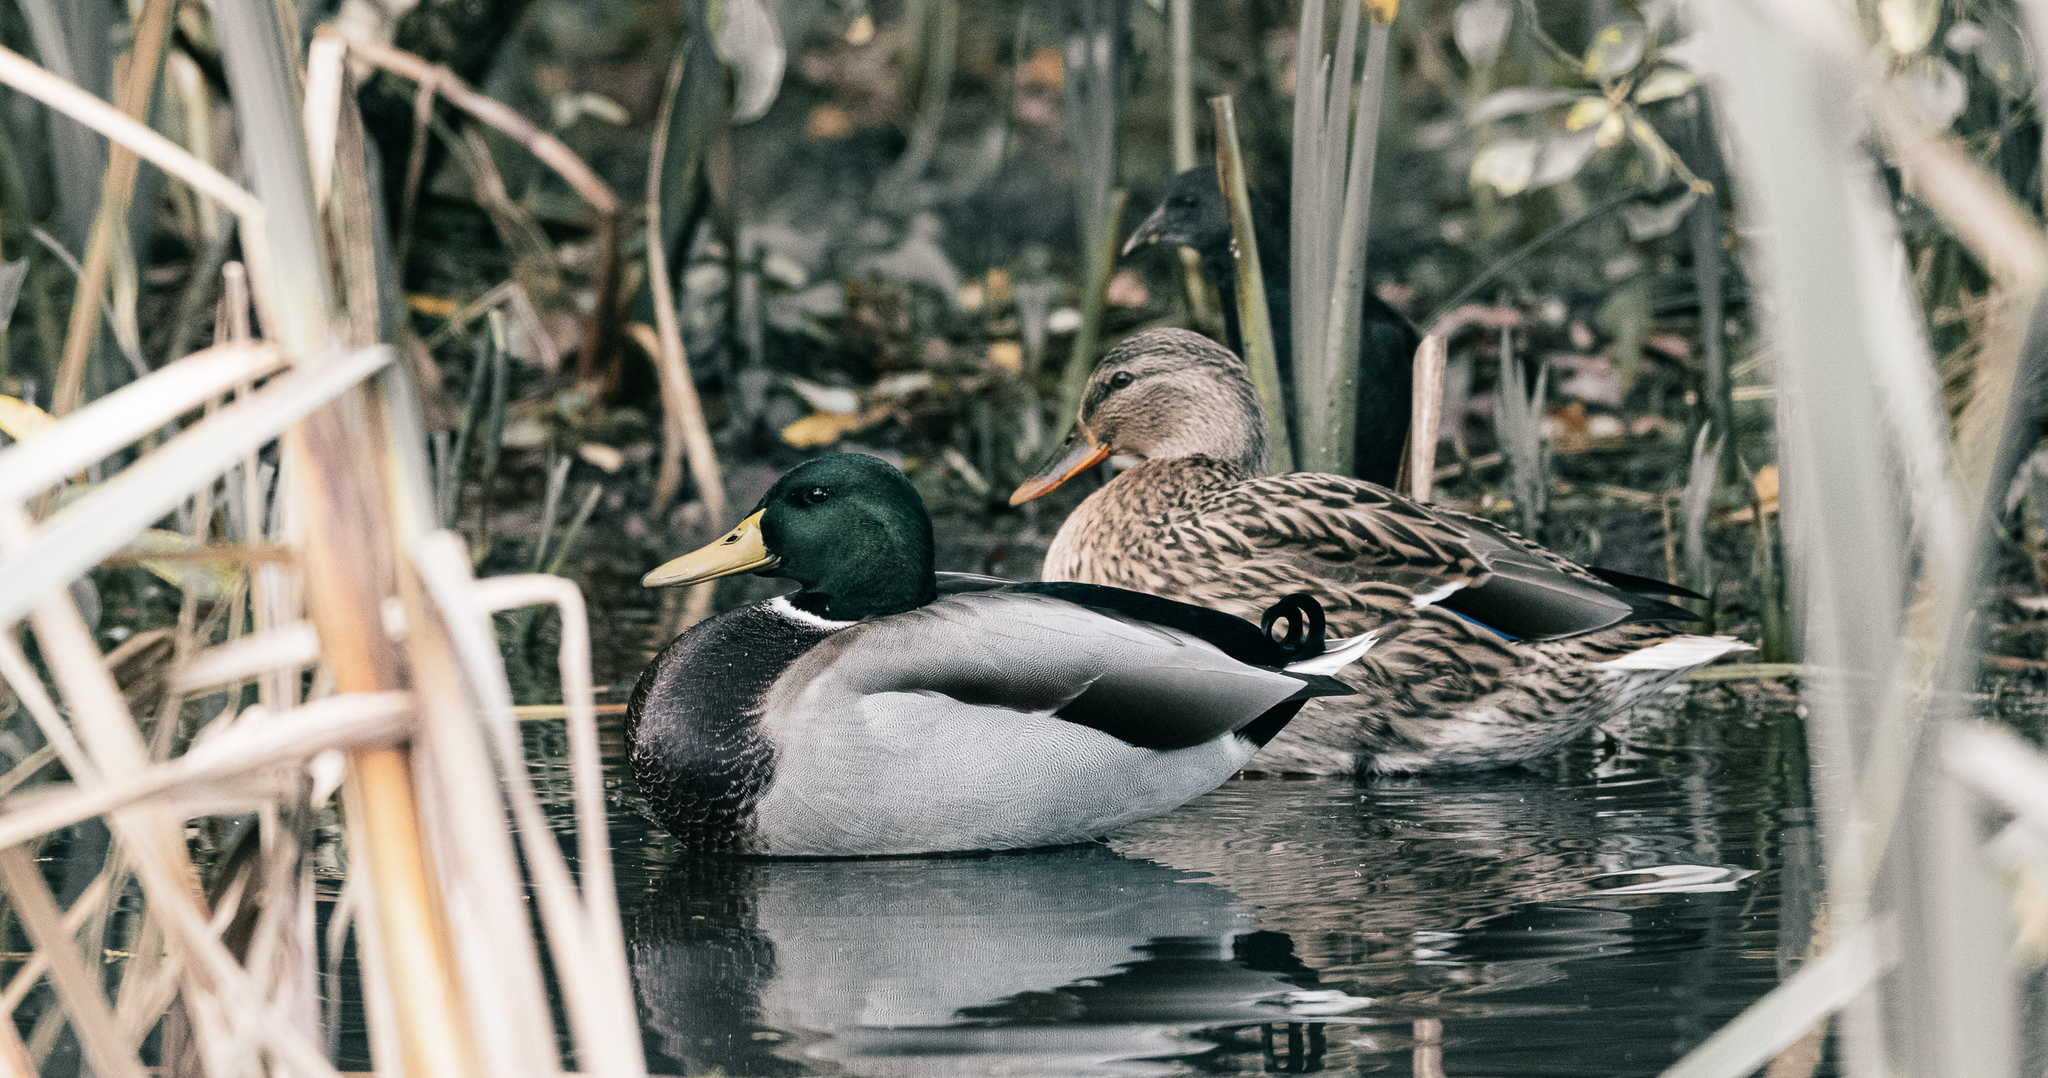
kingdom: Animalia
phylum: Chordata
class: Aves
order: Anseriformes
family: Anatidae
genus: Anas
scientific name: Anas platyrhynchos
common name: Mallard
